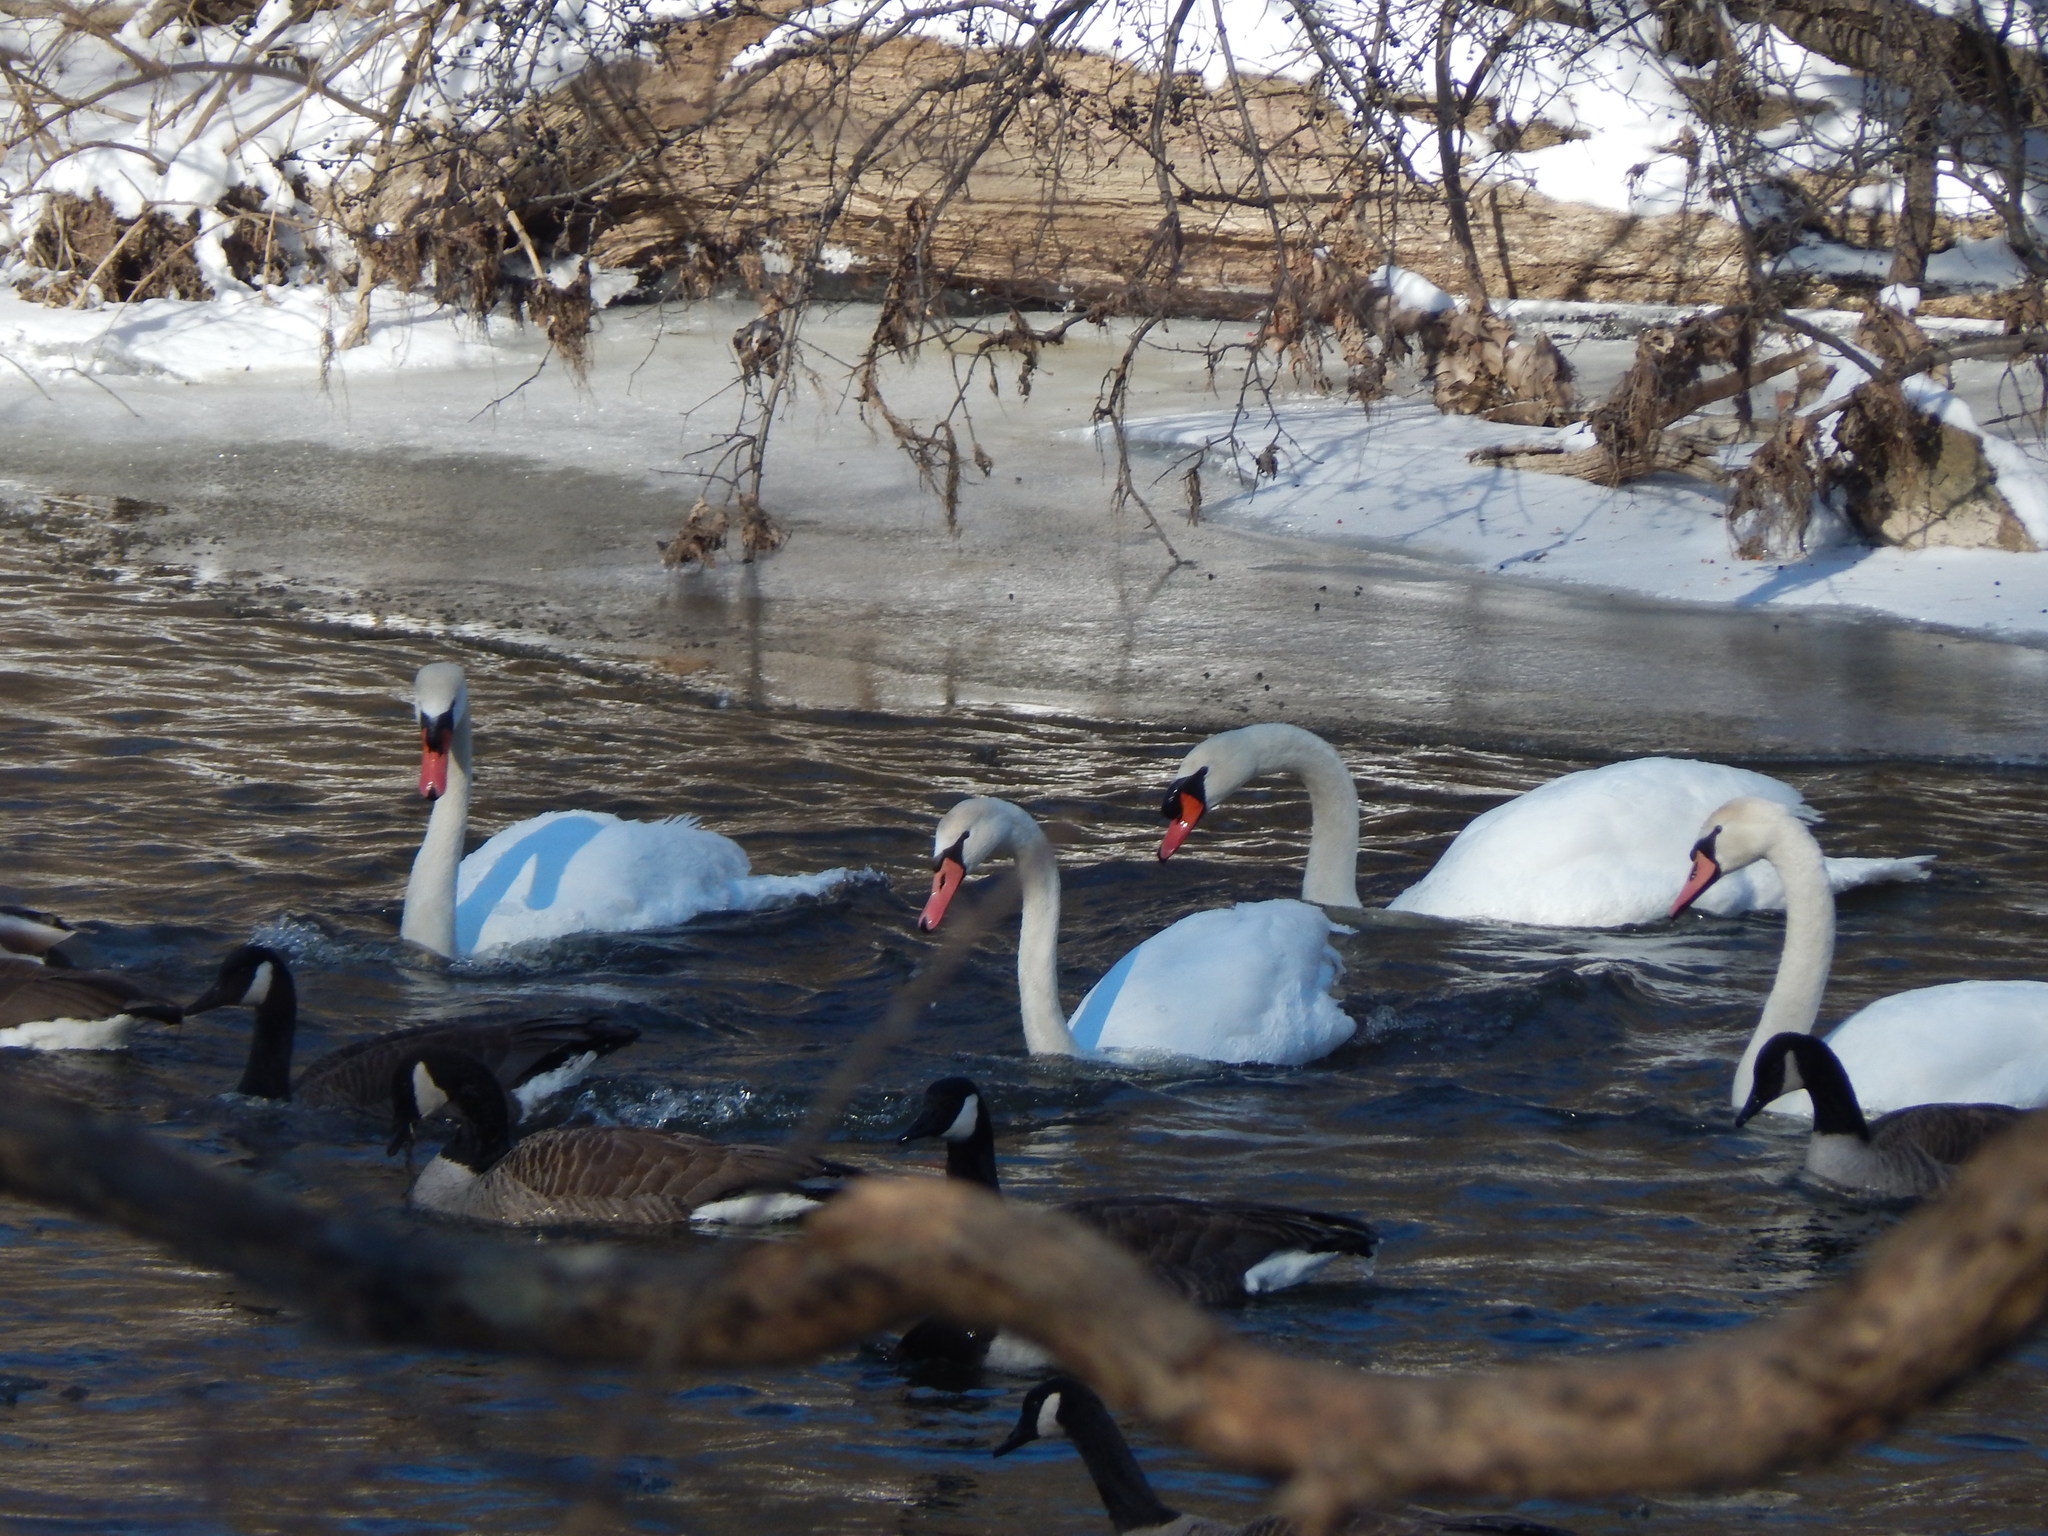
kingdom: Animalia
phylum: Chordata
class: Aves
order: Anseriformes
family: Anatidae
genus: Cygnus
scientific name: Cygnus olor
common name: Mute swan
